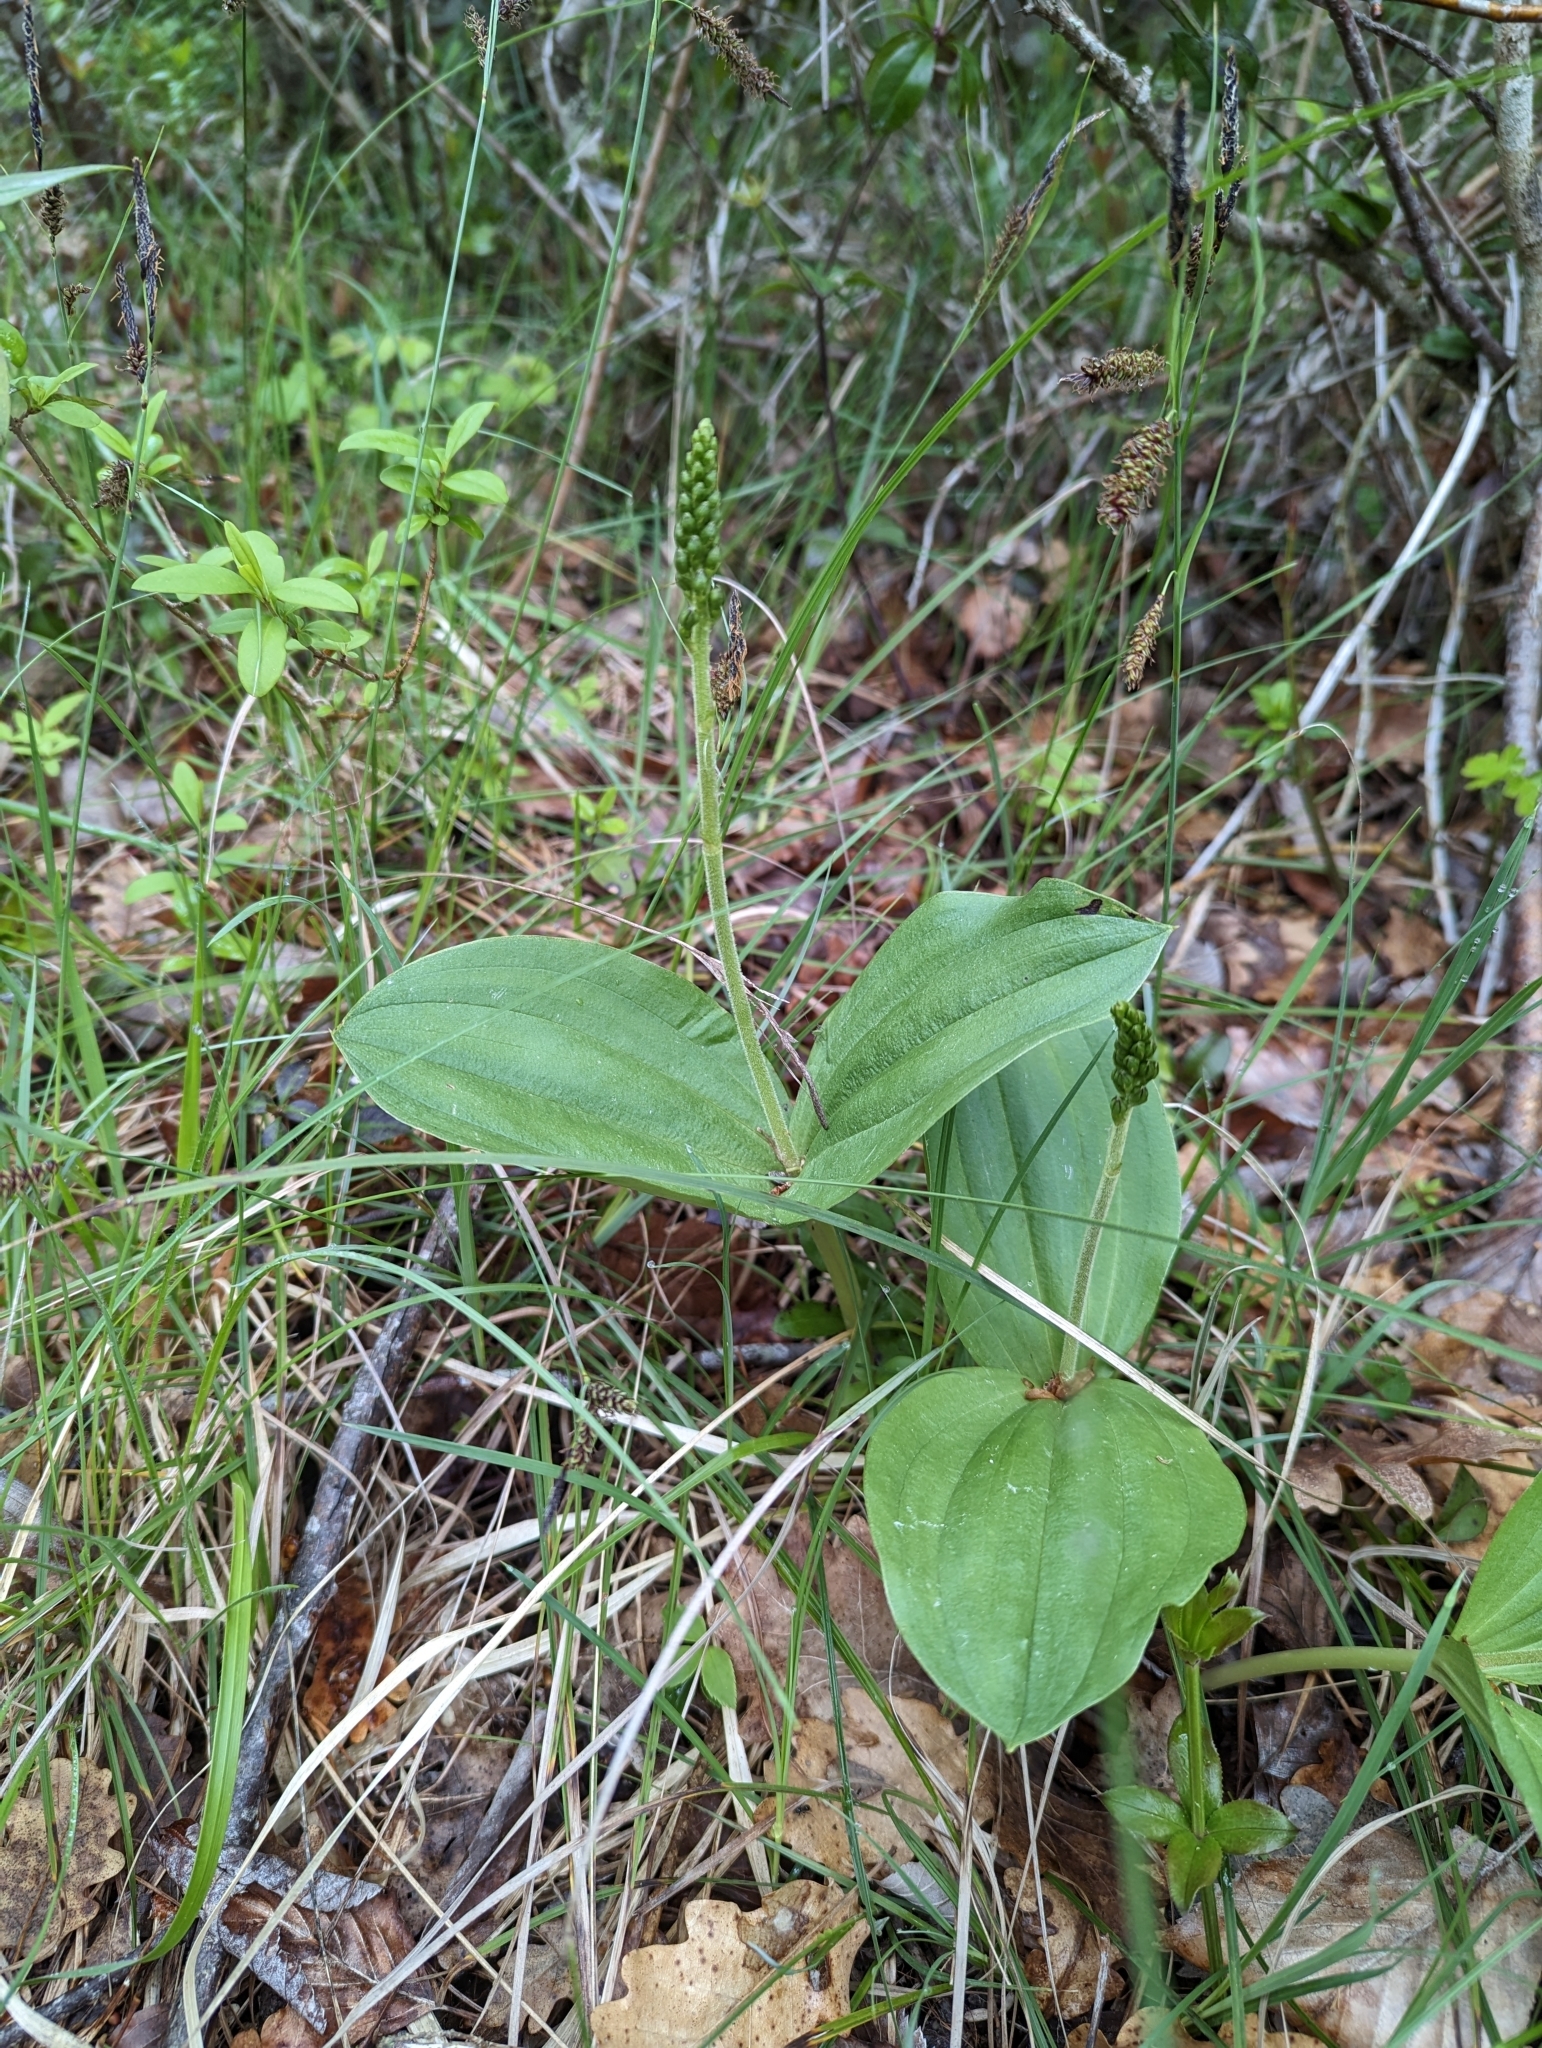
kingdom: Plantae
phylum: Tracheophyta
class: Liliopsida
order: Asparagales
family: Orchidaceae
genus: Neottia
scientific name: Neottia ovata
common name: Common twayblade
